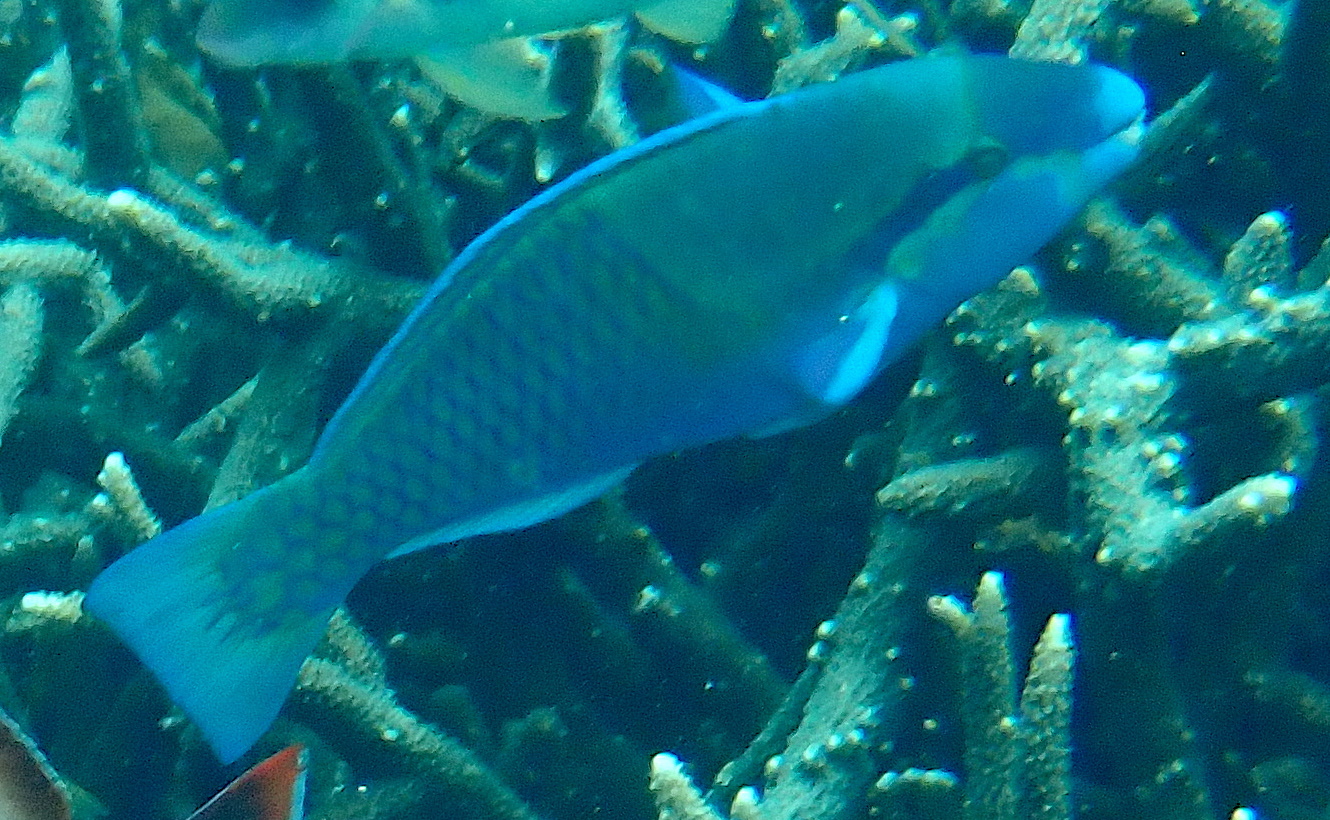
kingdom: Animalia
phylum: Chordata
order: Perciformes
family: Scaridae
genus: Scarus
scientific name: Scarus dimidiatus
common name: Yellowbarred parrotfish
